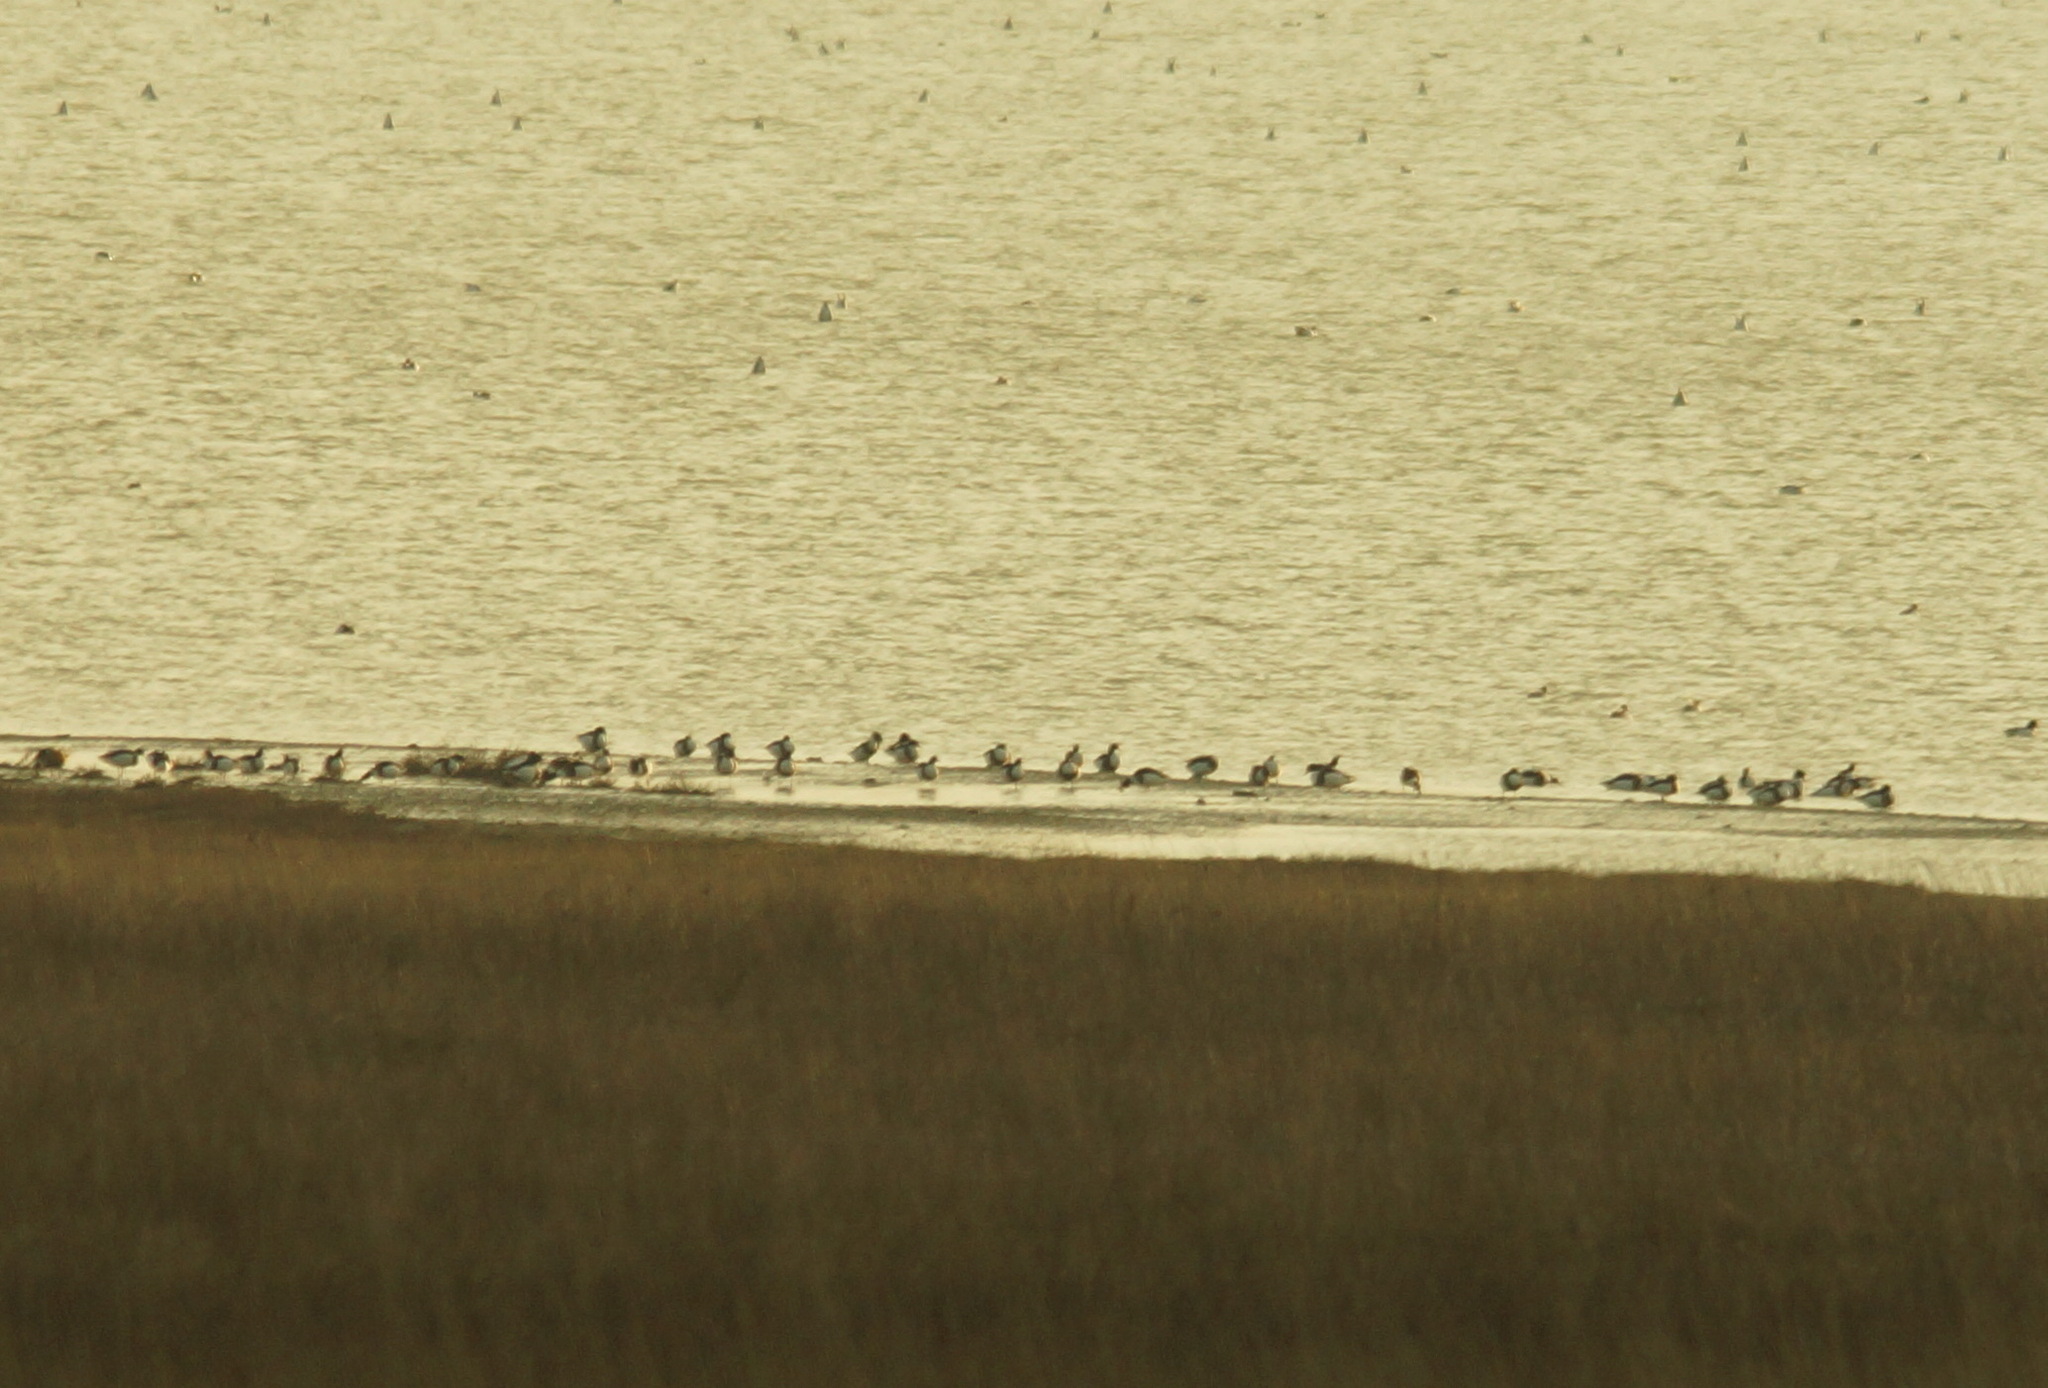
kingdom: Animalia
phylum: Chordata
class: Aves
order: Anseriformes
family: Anatidae
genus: Tadorna
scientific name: Tadorna tadorna
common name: Common shelduck
